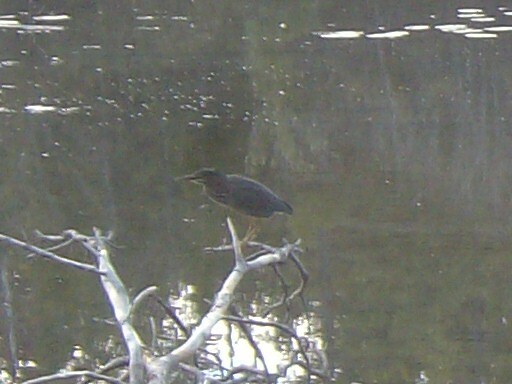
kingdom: Animalia
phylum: Chordata
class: Aves
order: Pelecaniformes
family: Ardeidae
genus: Butorides
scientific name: Butorides virescens
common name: Green heron
